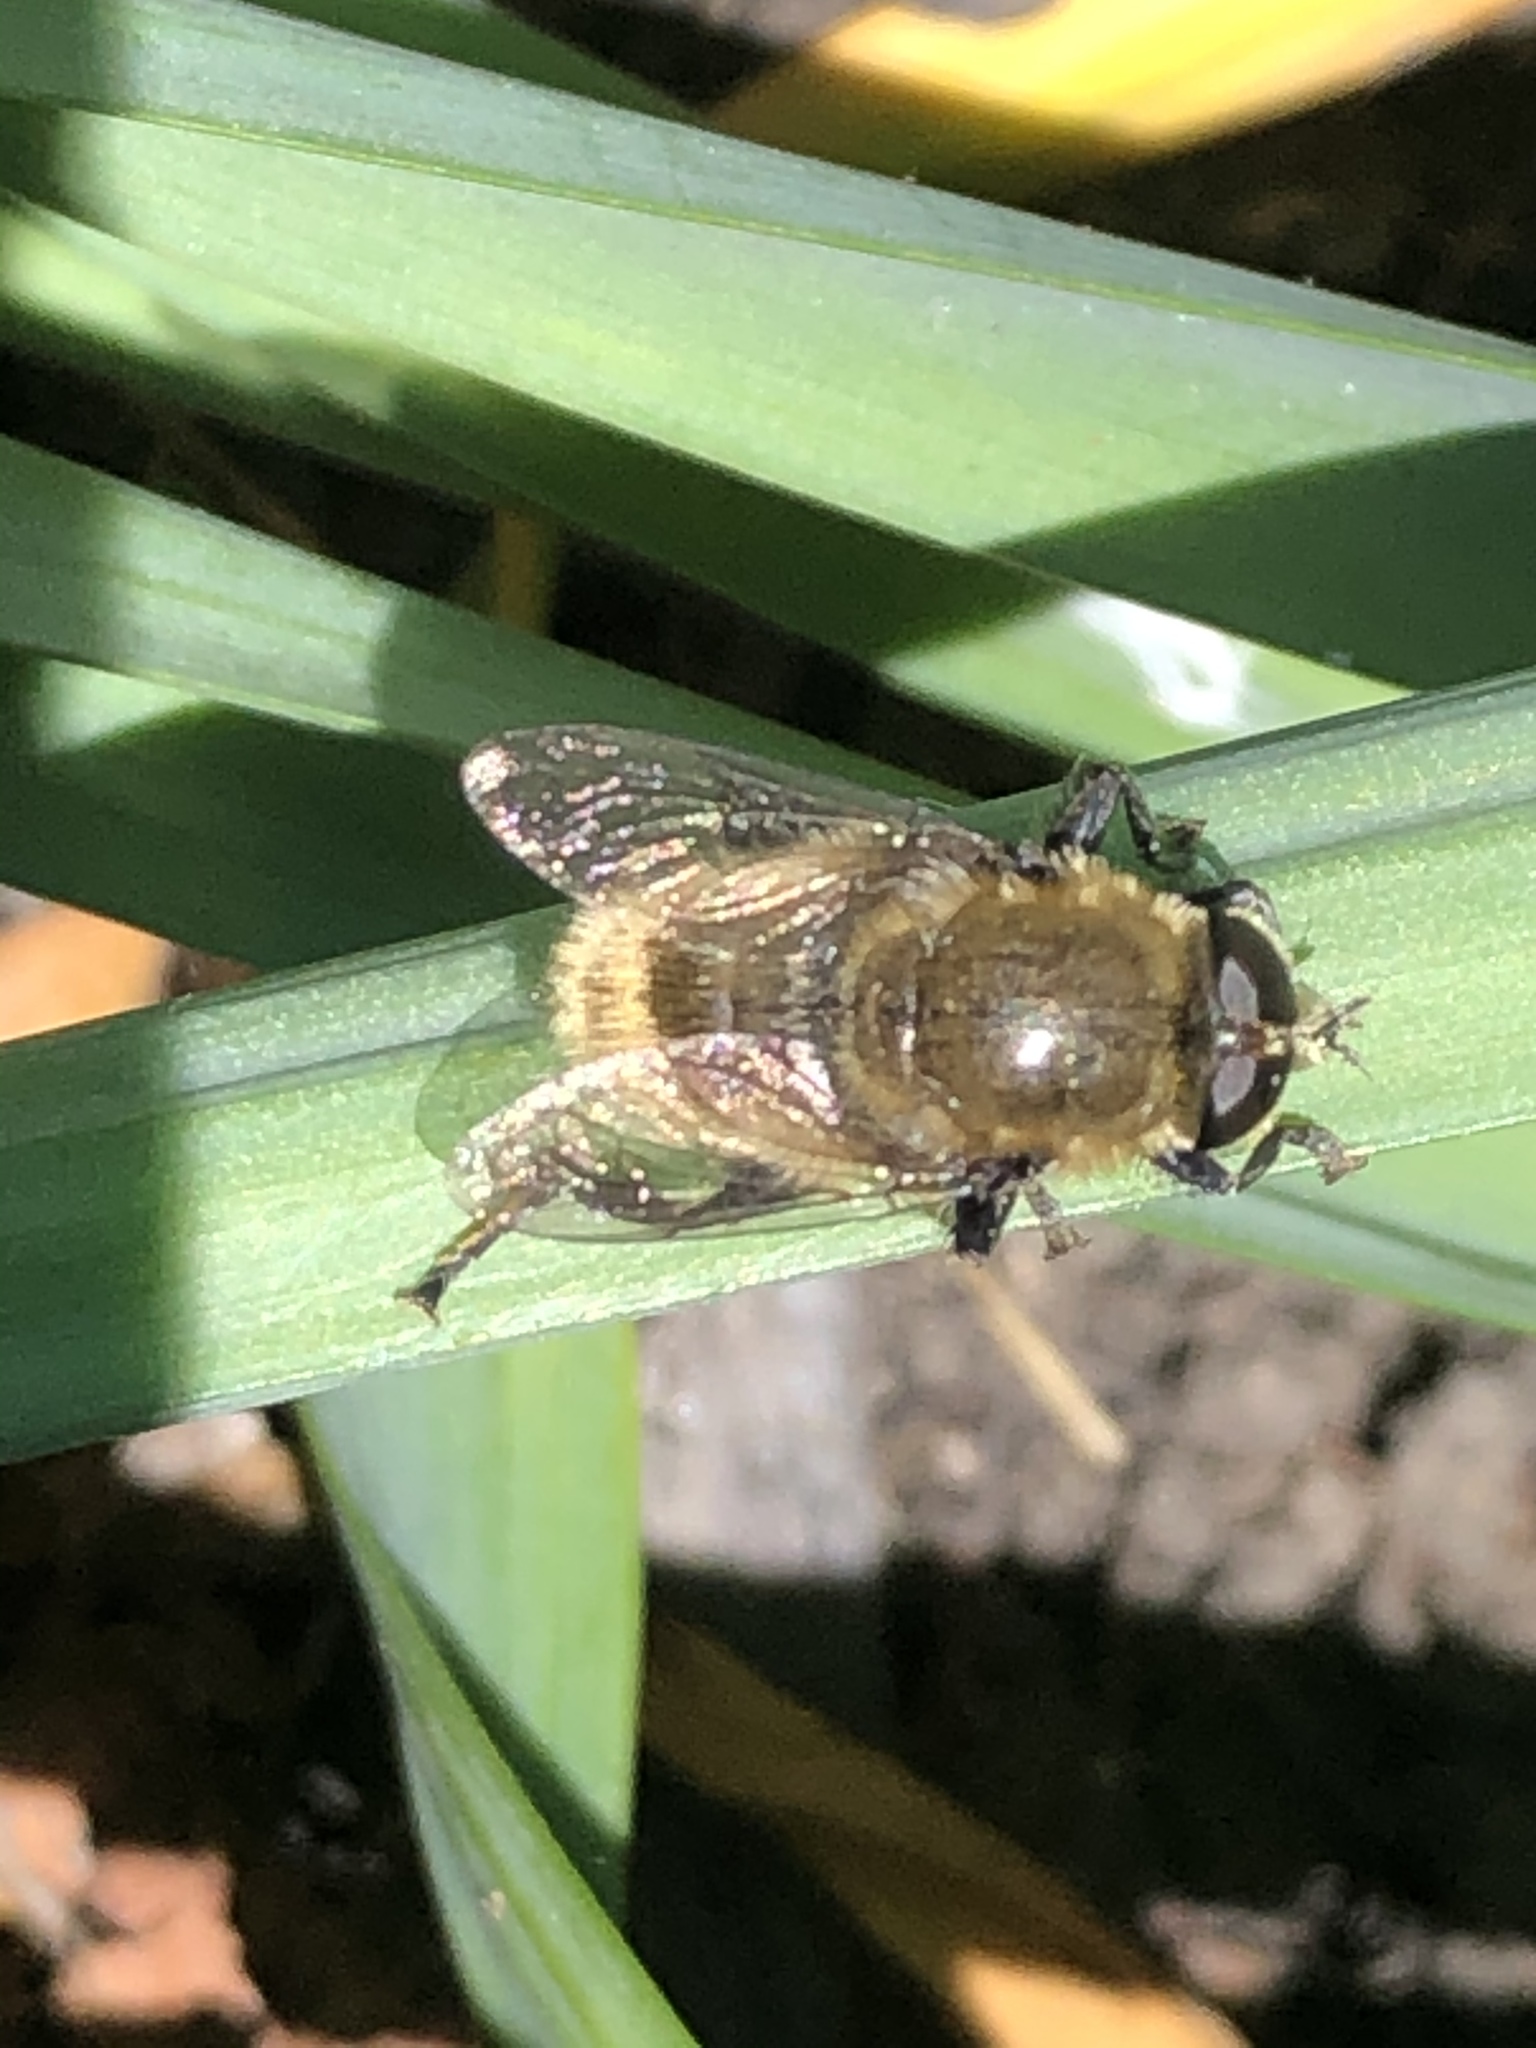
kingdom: Animalia
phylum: Arthropoda
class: Insecta
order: Diptera
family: Syrphidae
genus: Merodon
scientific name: Merodon equestris
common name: Greater bulb-fly
